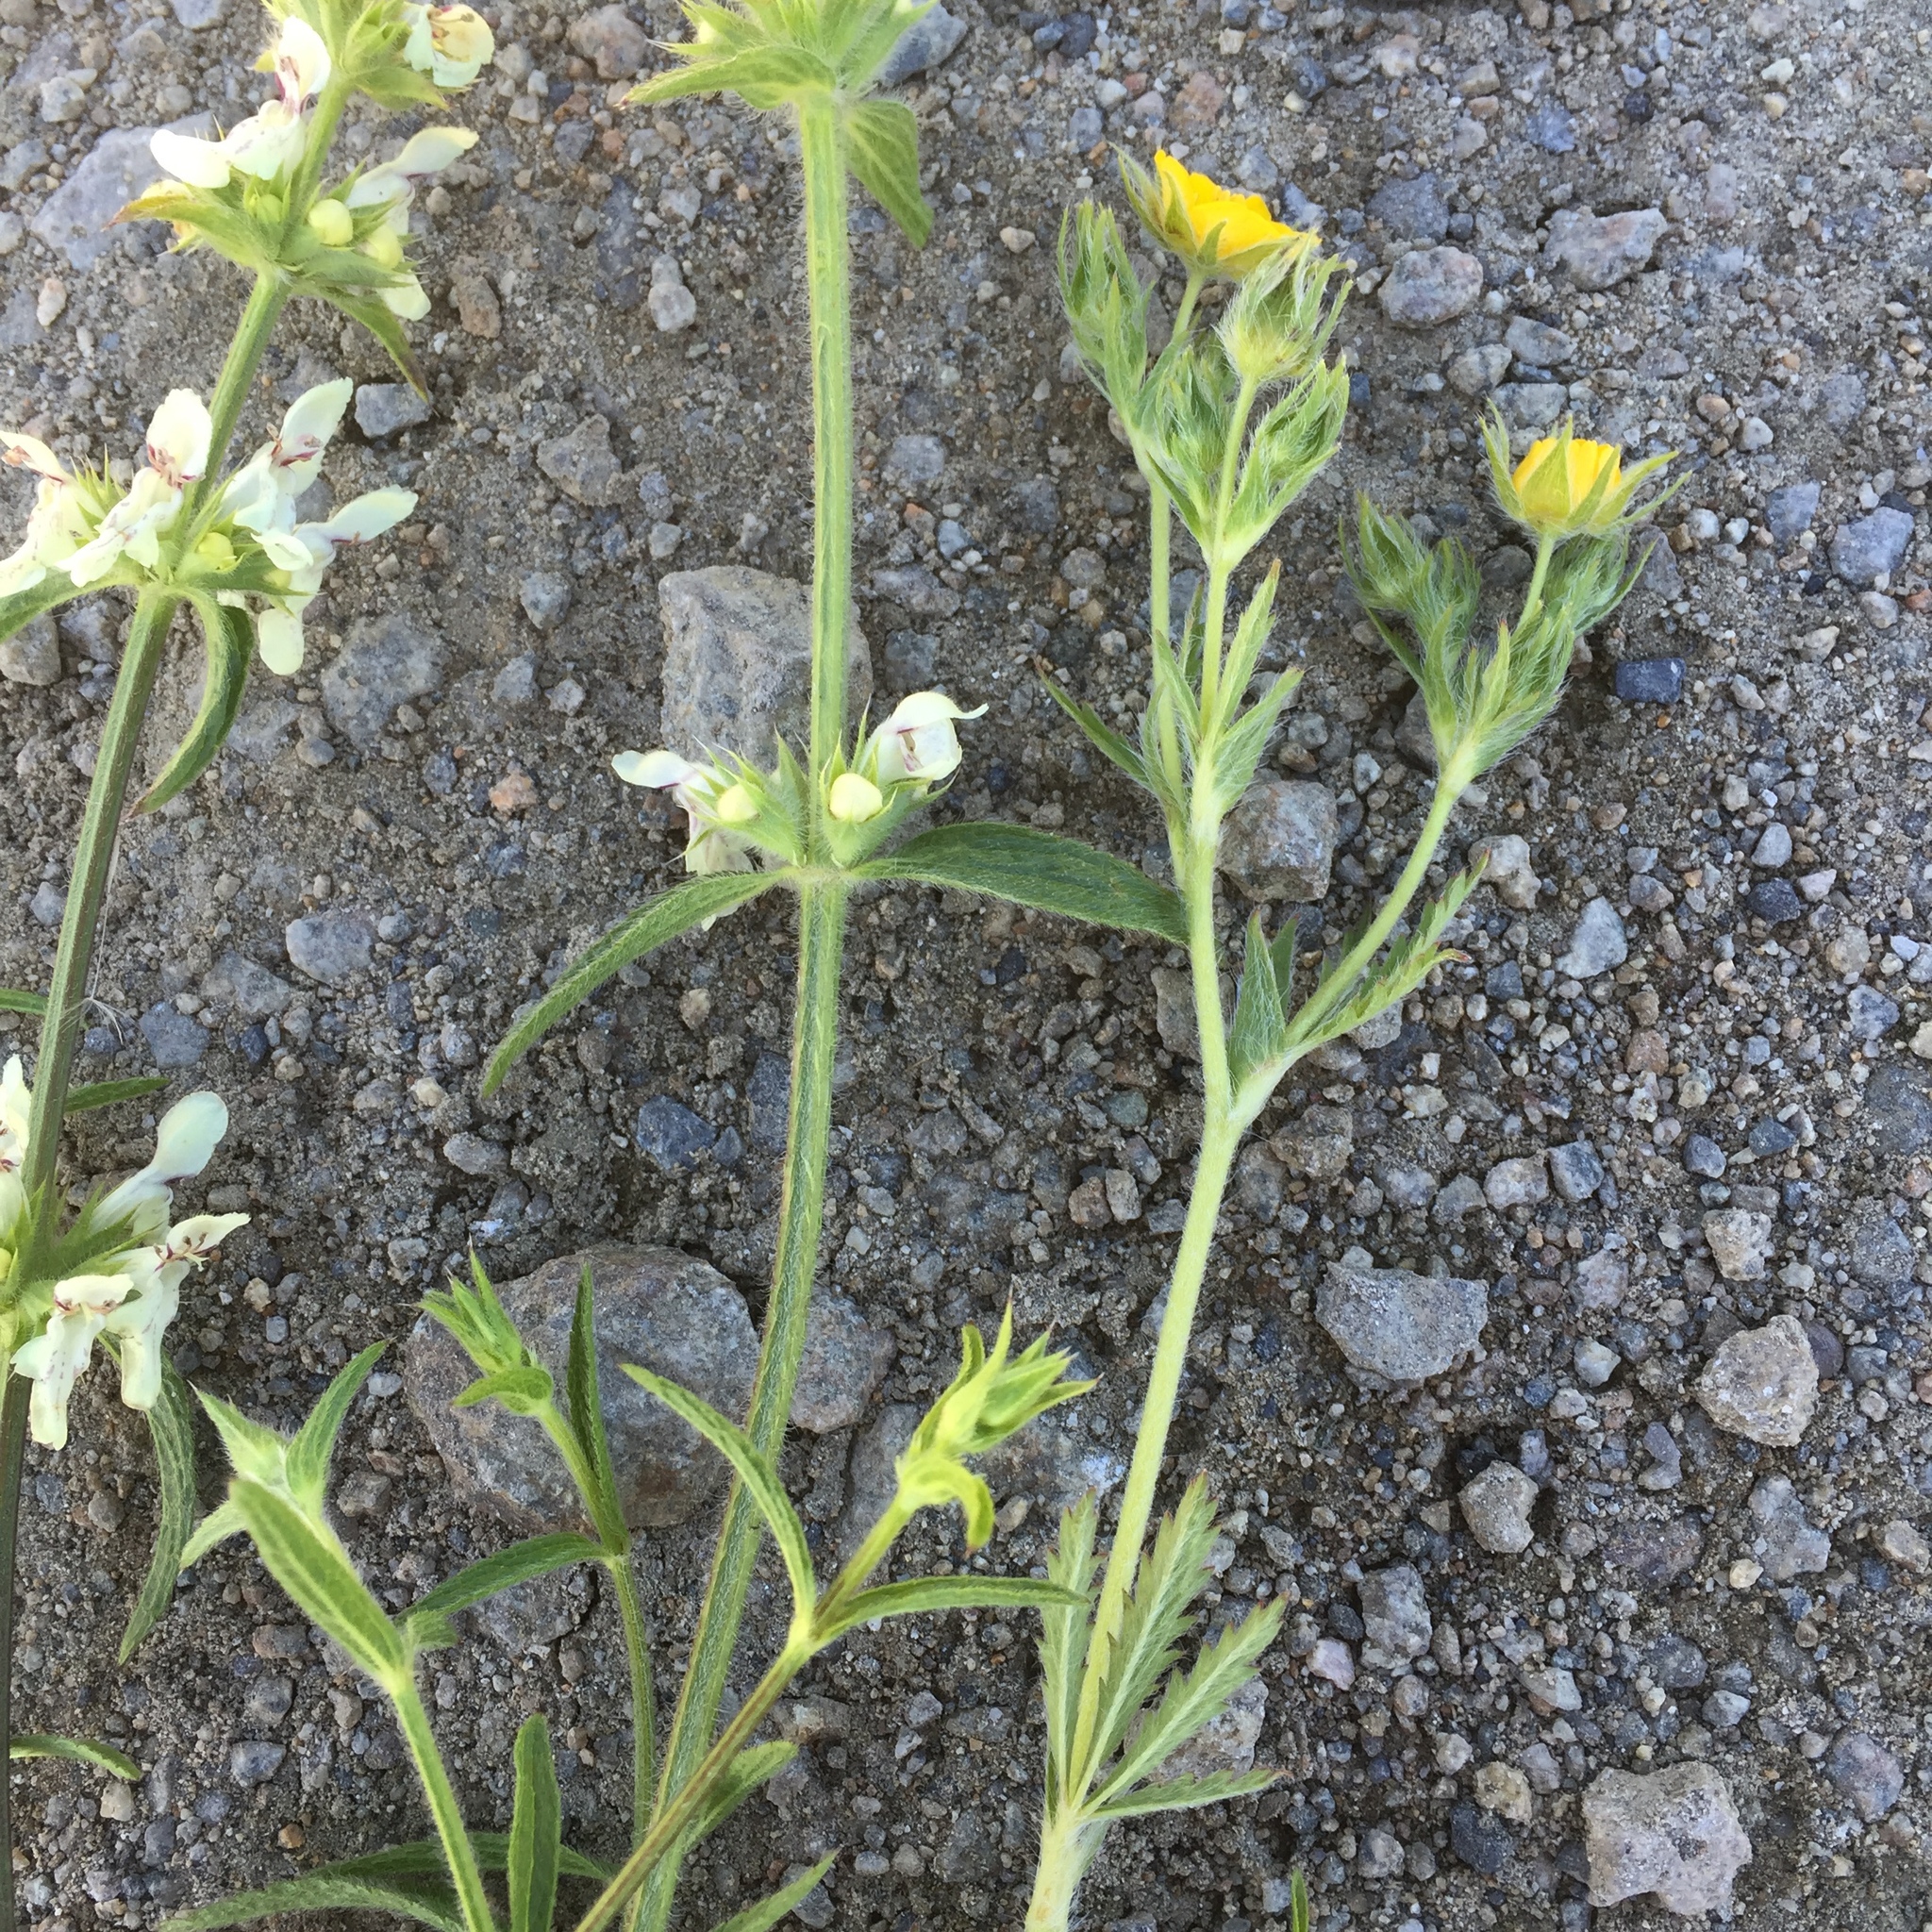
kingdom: Plantae
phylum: Tracheophyta
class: Magnoliopsida
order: Lamiales
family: Lamiaceae
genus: Stachys
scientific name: Stachys recta
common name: Perennial yellow-woundwort
